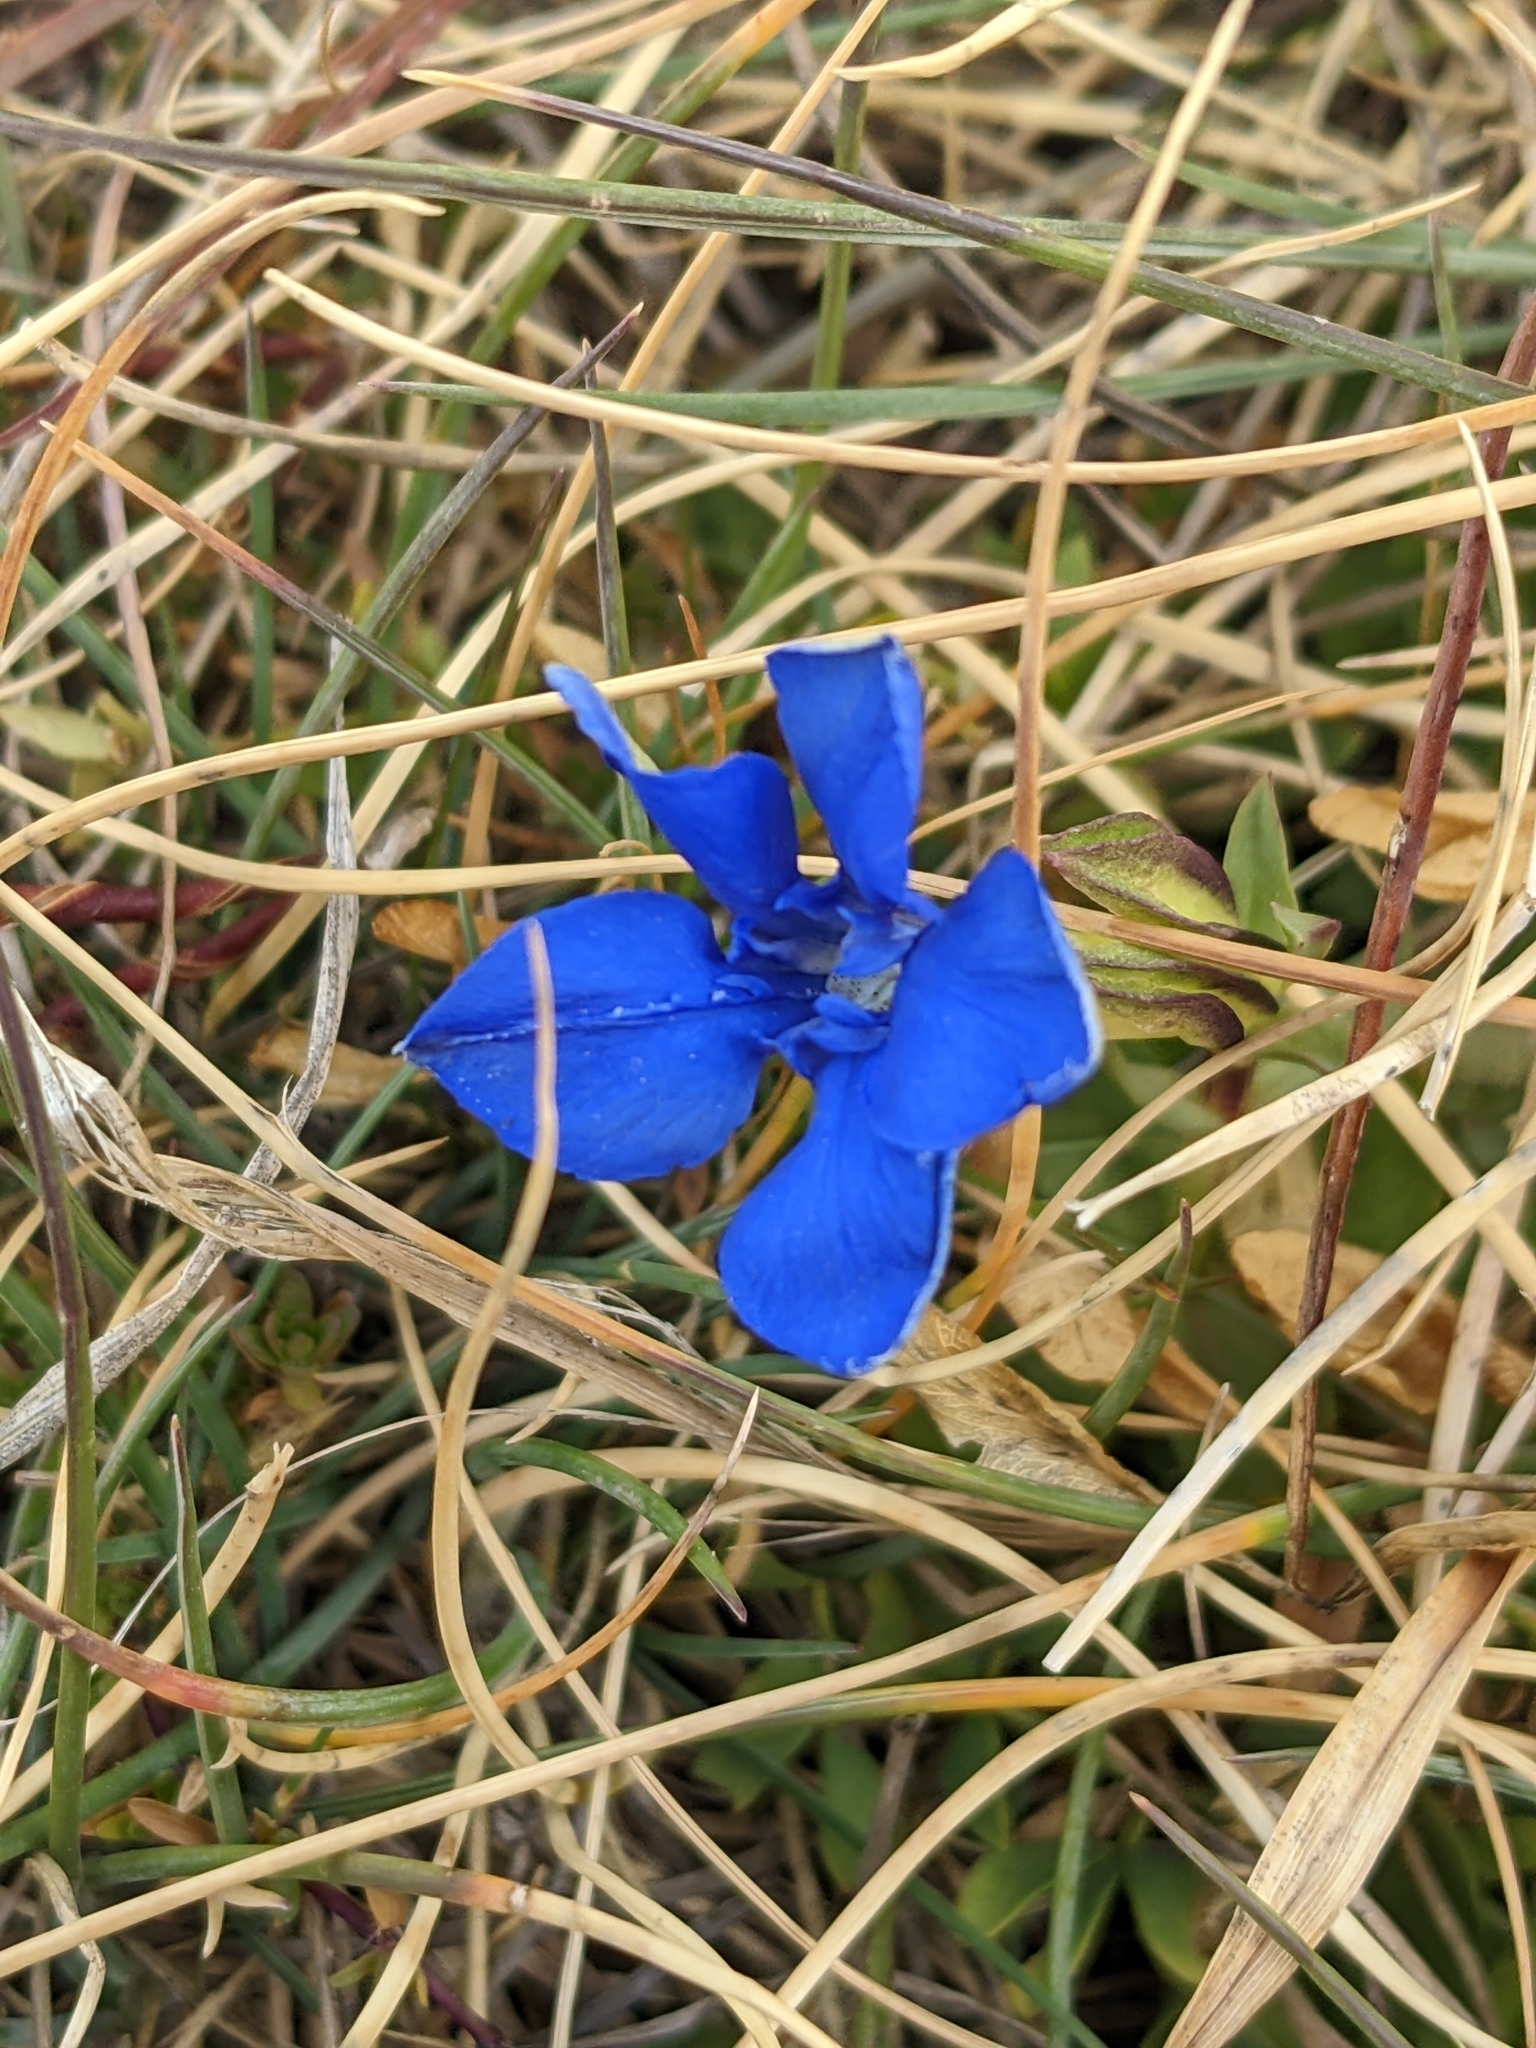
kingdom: Plantae
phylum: Tracheophyta
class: Magnoliopsida
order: Gentianales
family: Gentianaceae
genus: Gentiana
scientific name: Gentiana verna
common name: Spring gentian
